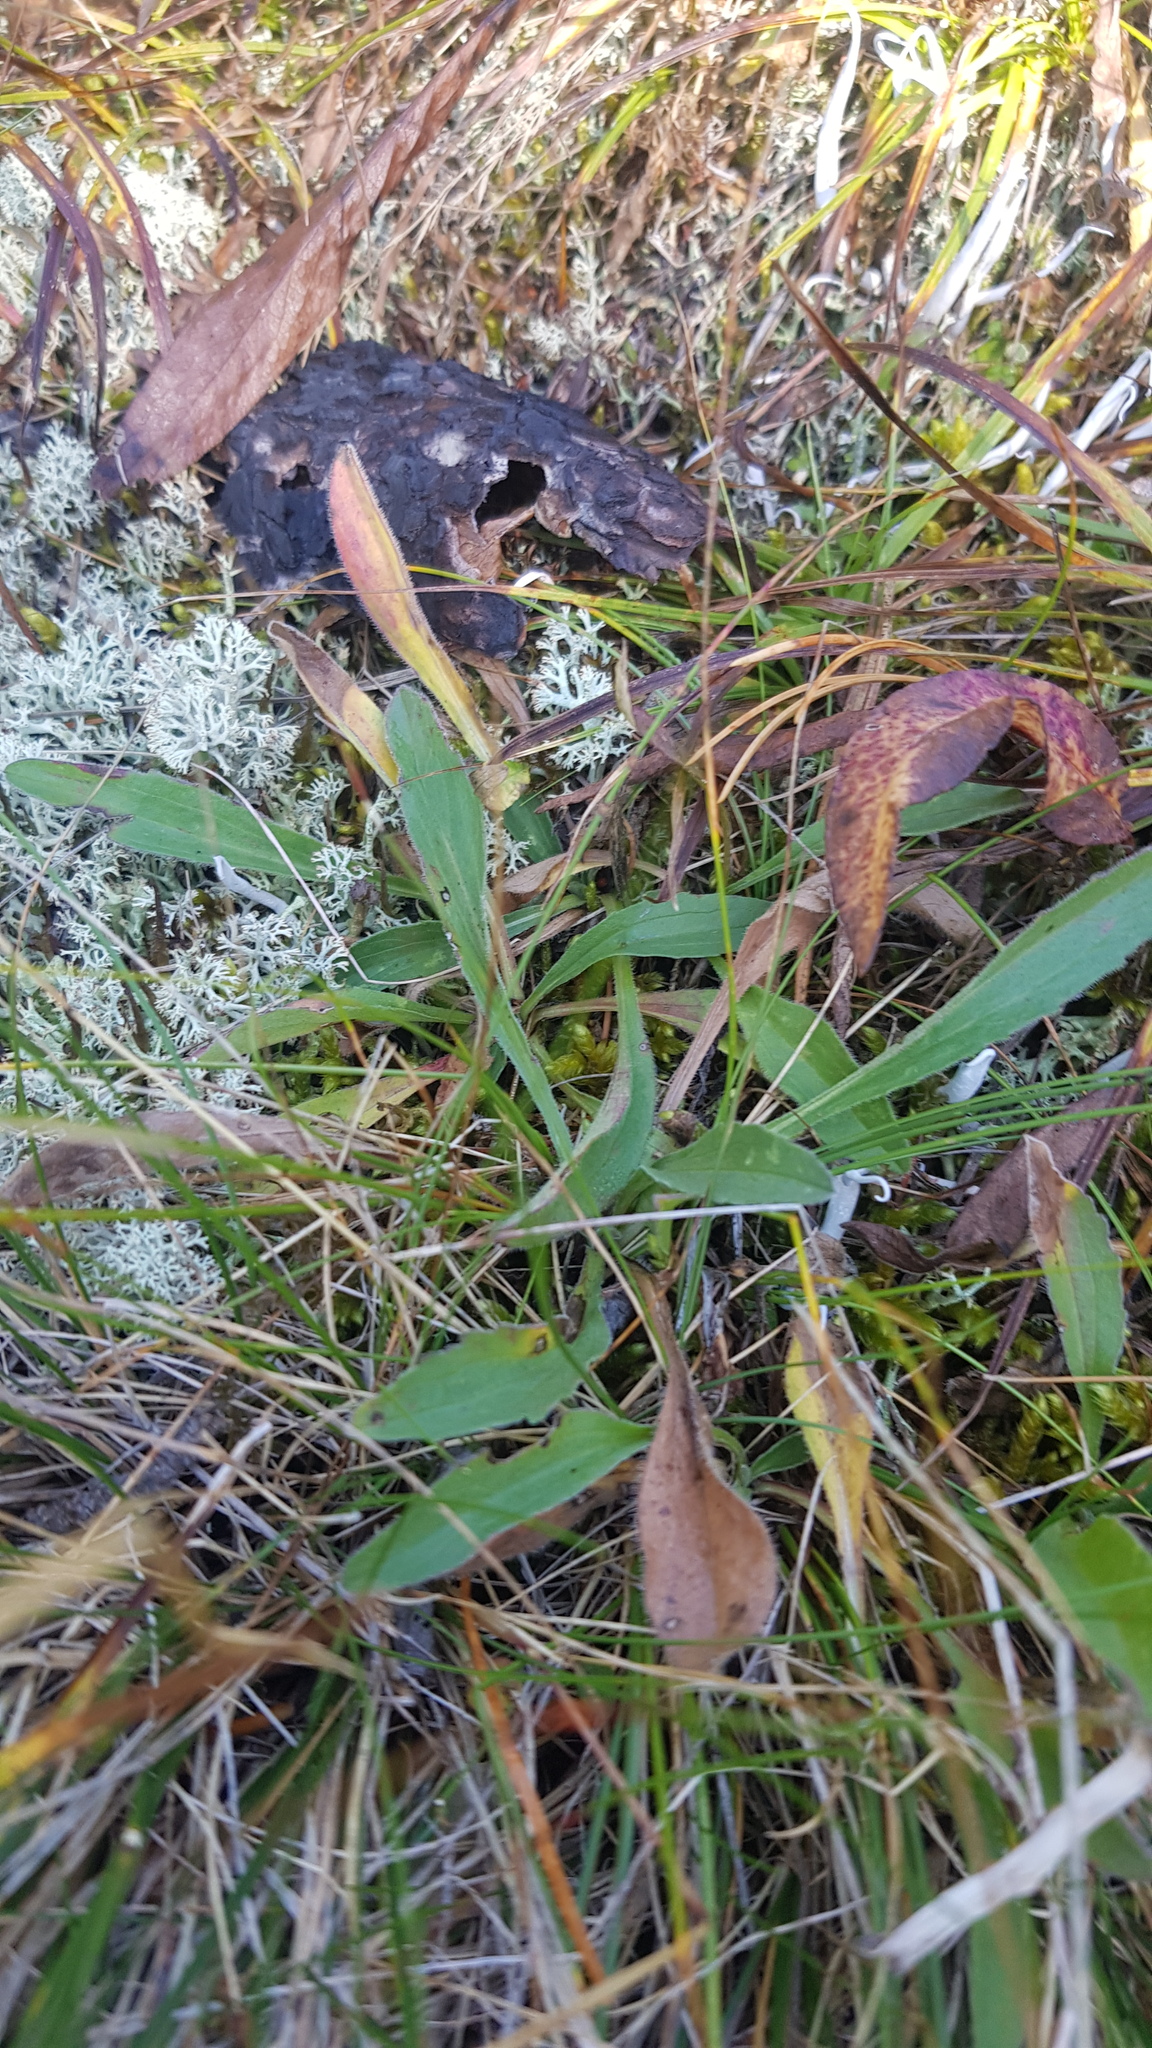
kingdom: Plantae
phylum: Tracheophyta
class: Magnoliopsida
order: Dipsacales
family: Caprifoliaceae
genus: Patrinia
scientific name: Patrinia sibirica
